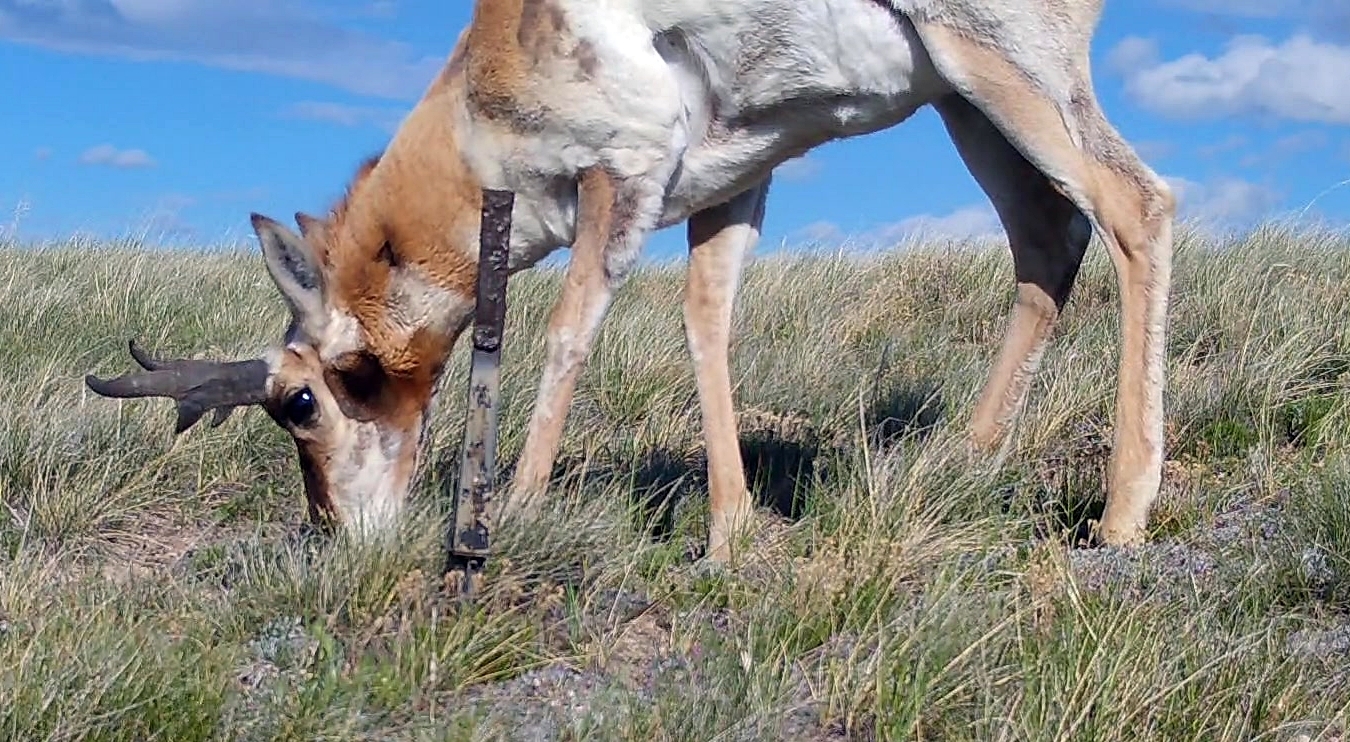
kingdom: Animalia
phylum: Chordata
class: Mammalia
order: Artiodactyla
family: Antilocapridae
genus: Antilocapra
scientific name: Antilocapra americana
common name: Pronghorn
